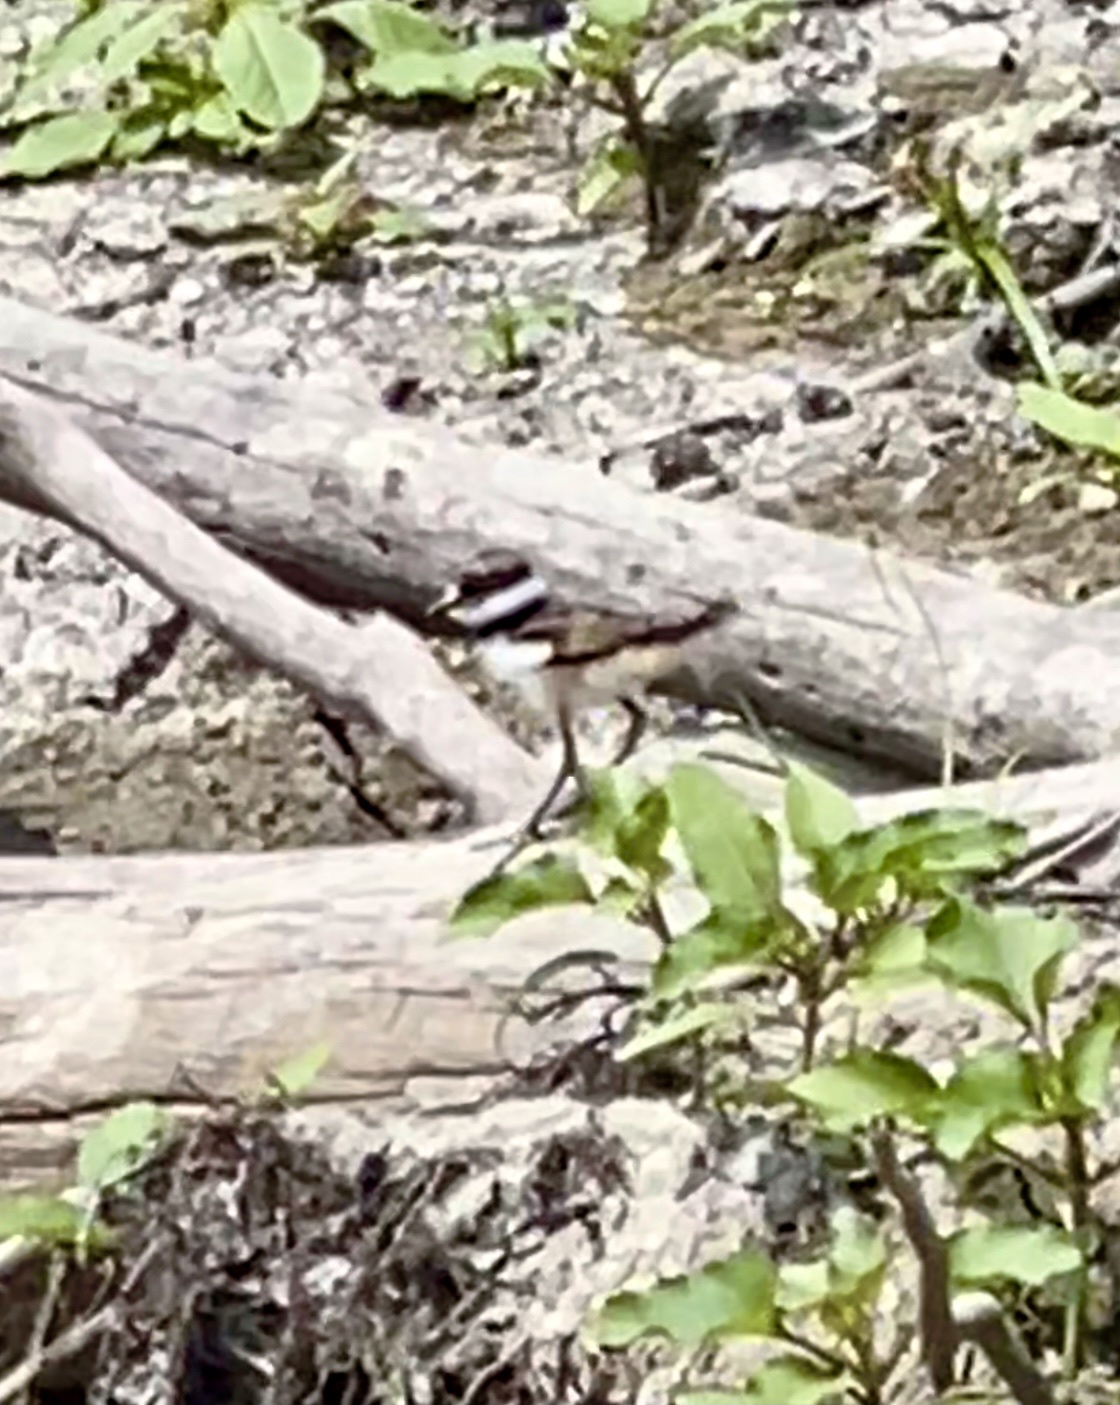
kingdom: Animalia
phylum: Chordata
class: Aves
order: Charadriiformes
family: Charadriidae
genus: Charadrius
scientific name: Charadrius vociferus
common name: Killdeer
